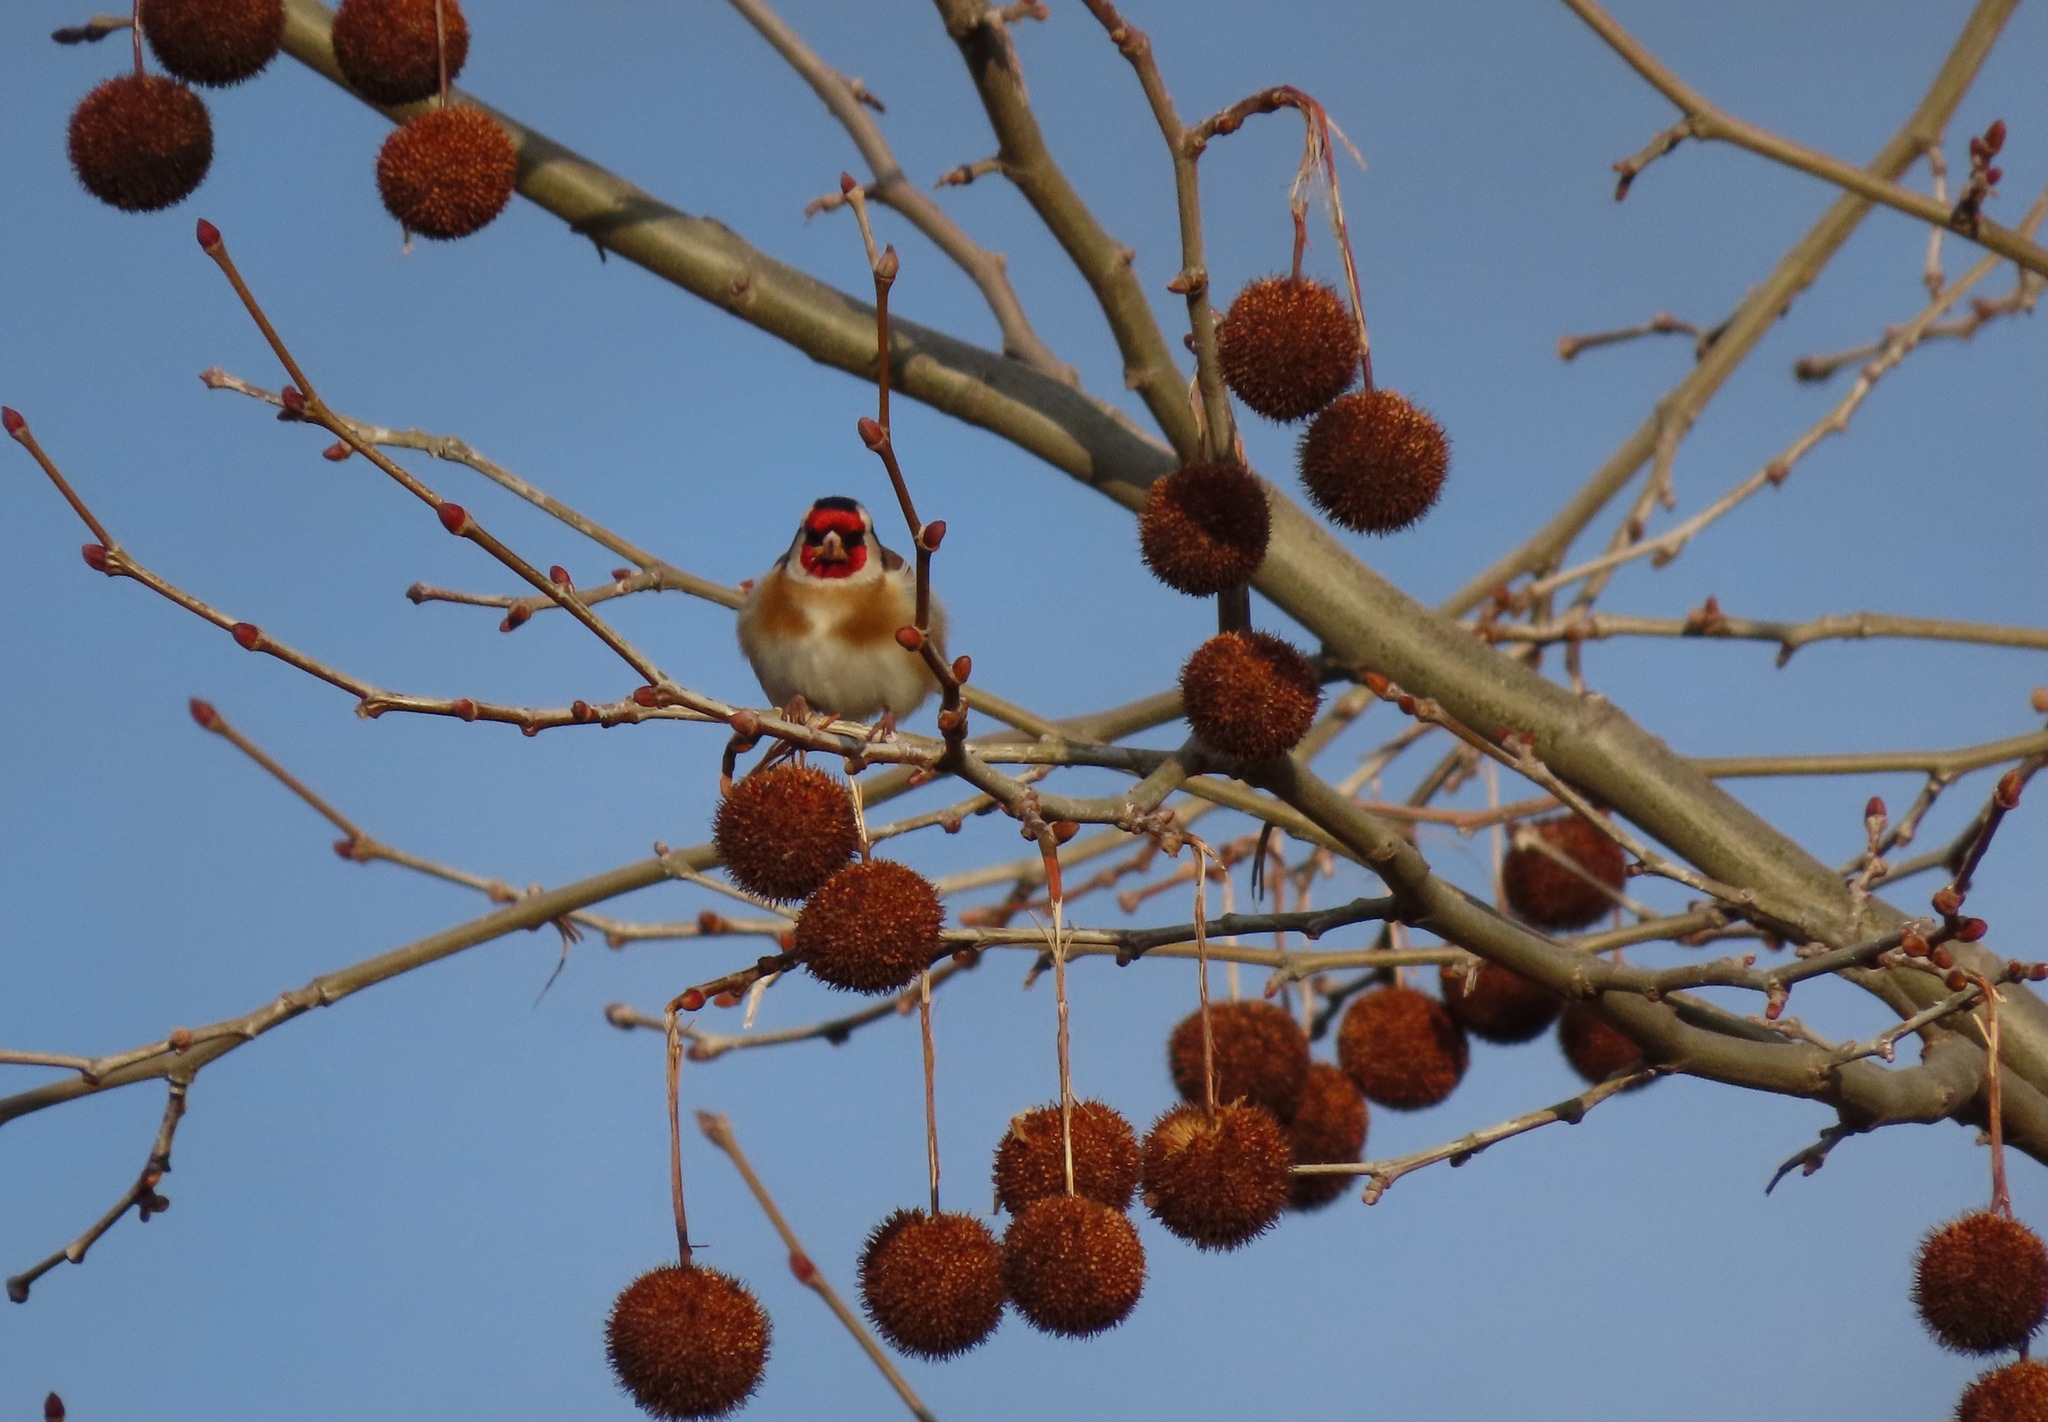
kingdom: Animalia
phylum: Chordata
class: Aves
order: Passeriformes
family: Fringillidae
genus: Carduelis
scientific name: Carduelis carduelis
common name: European goldfinch
